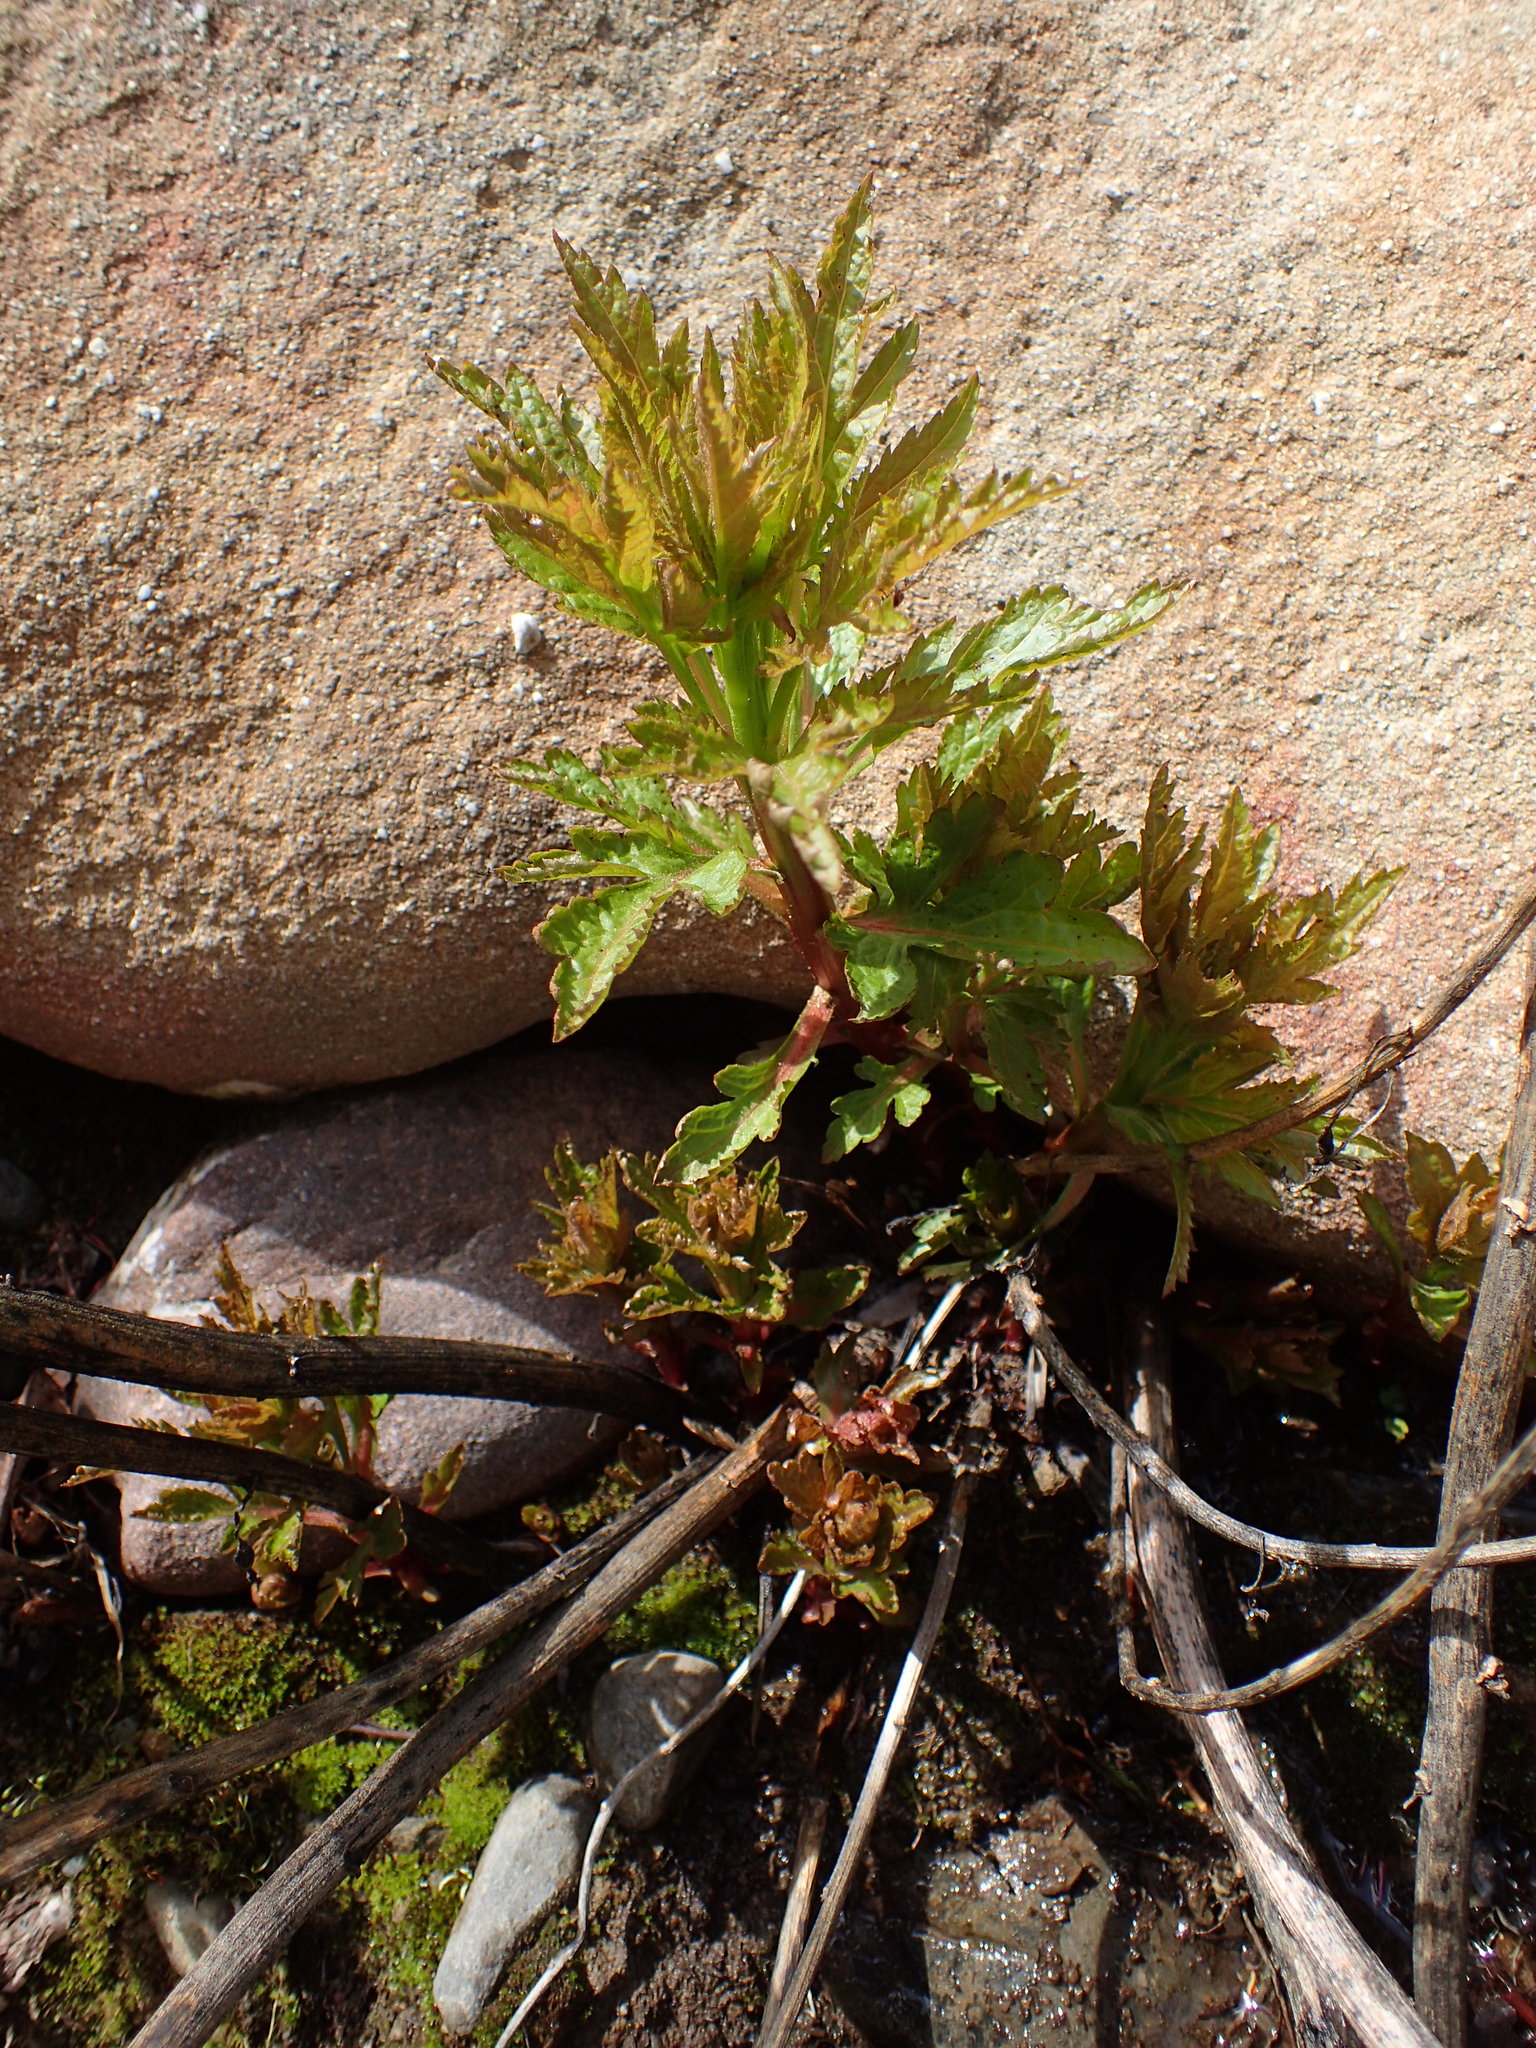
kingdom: Plantae
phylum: Tracheophyta
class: Magnoliopsida
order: Cucurbitales
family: Datiscaceae
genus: Datisca
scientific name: Datisca glomerata
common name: Durango-root
